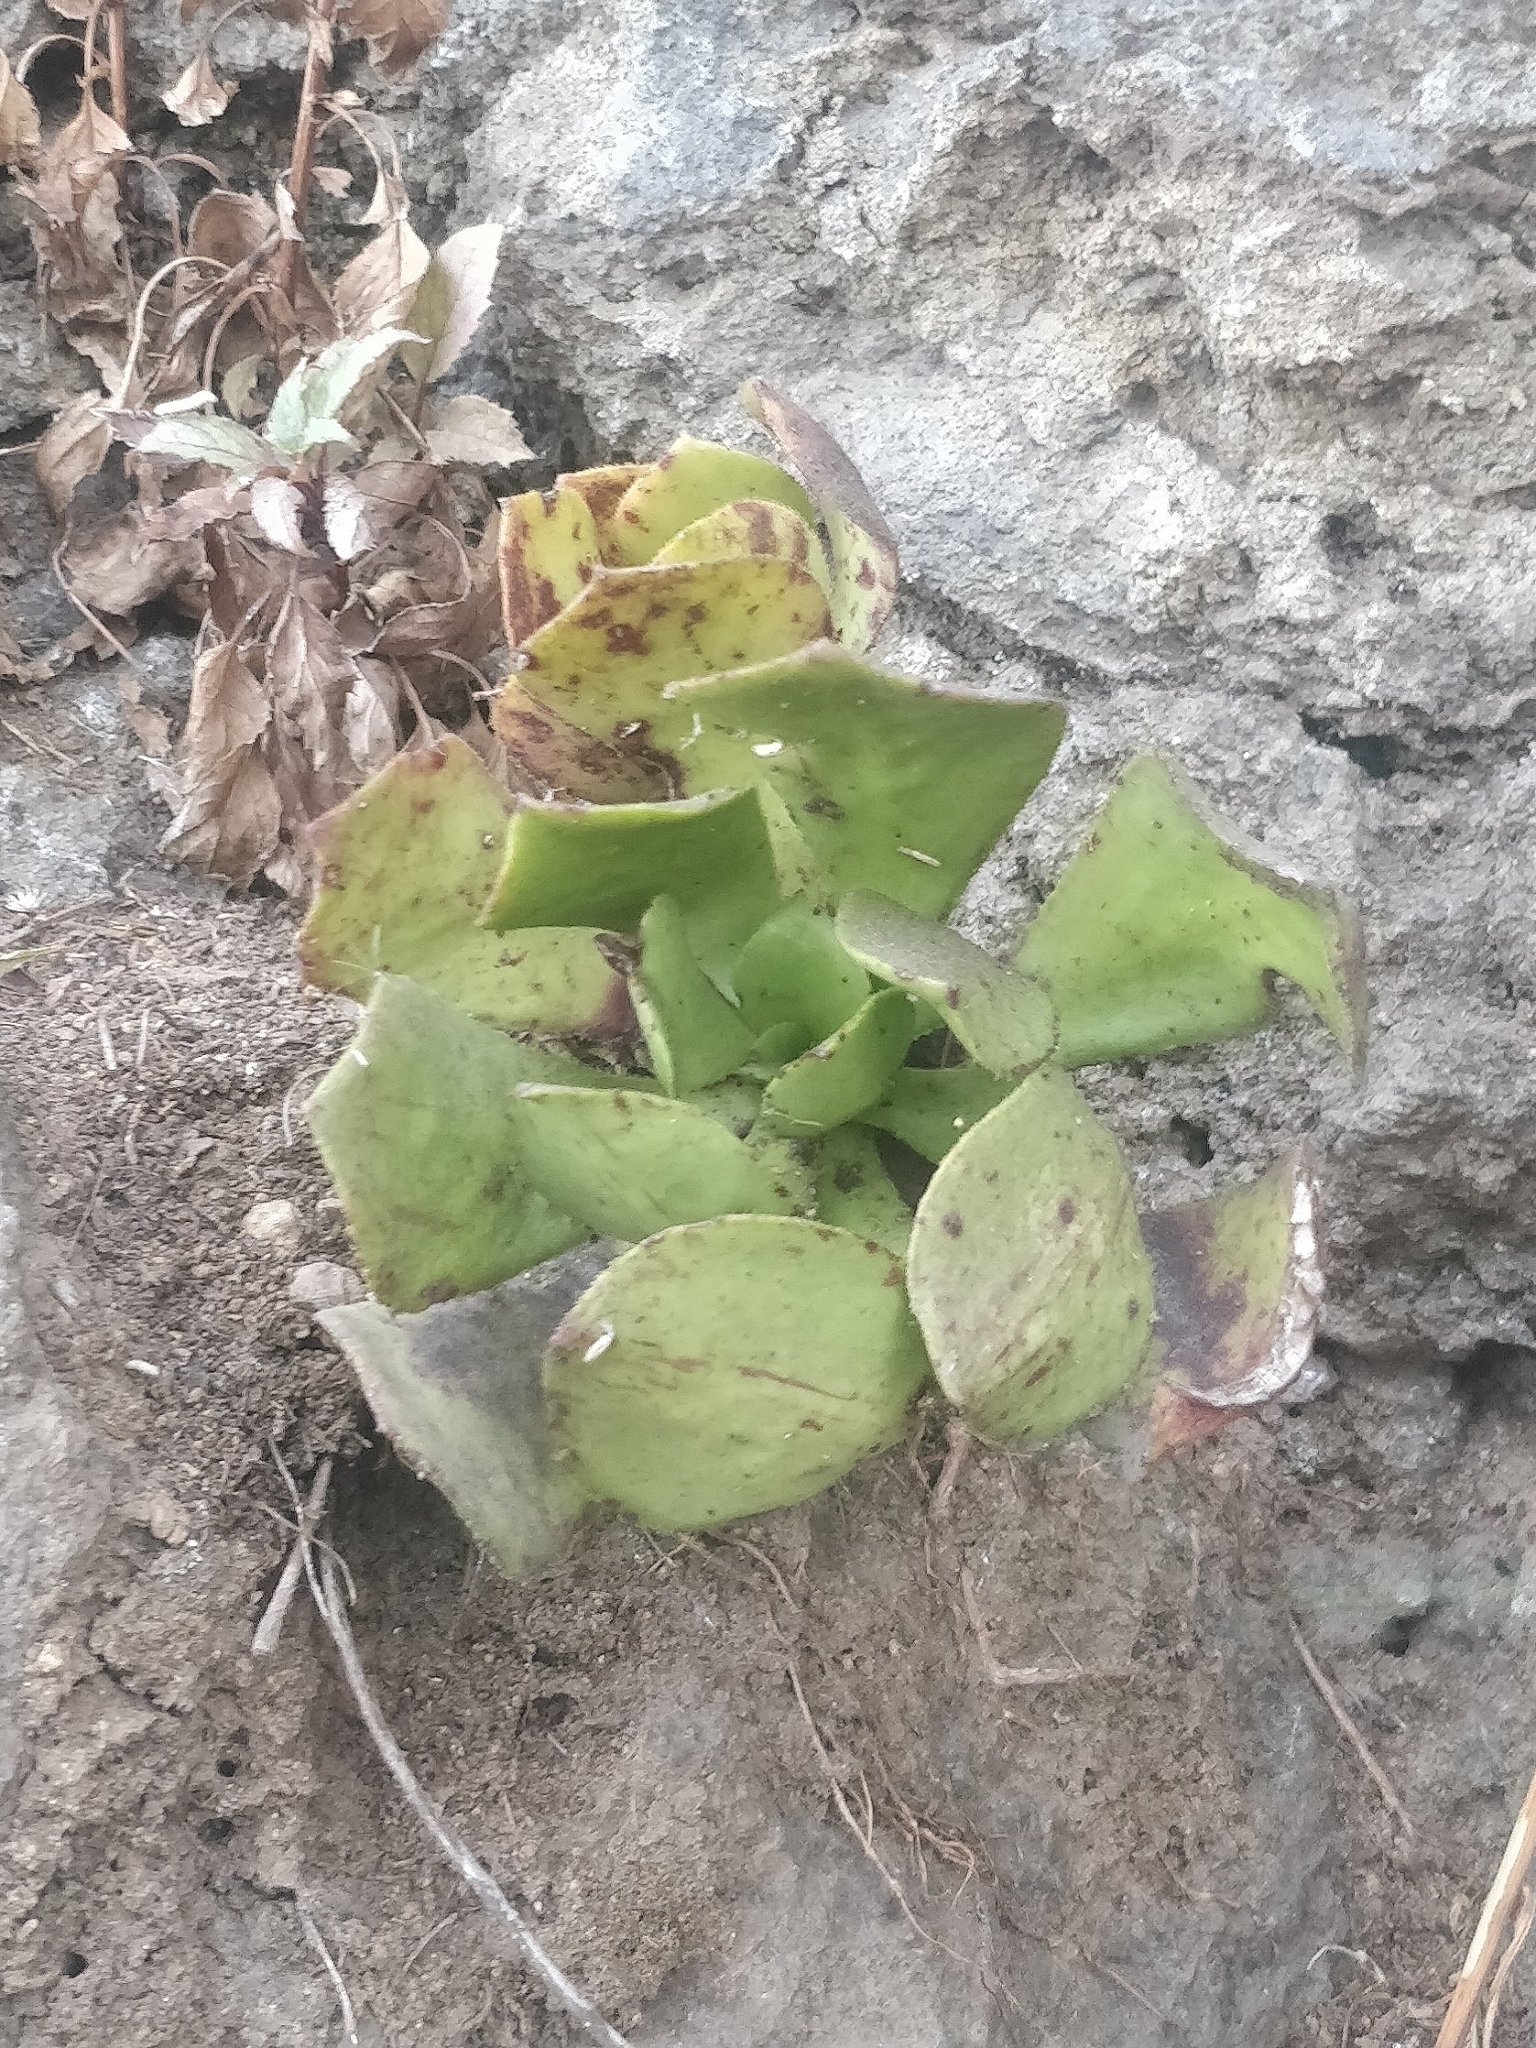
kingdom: Plantae
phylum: Tracheophyta
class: Magnoliopsida
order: Saxifragales
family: Crassulaceae
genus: Aeonium
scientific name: Aeonium glutinosum
